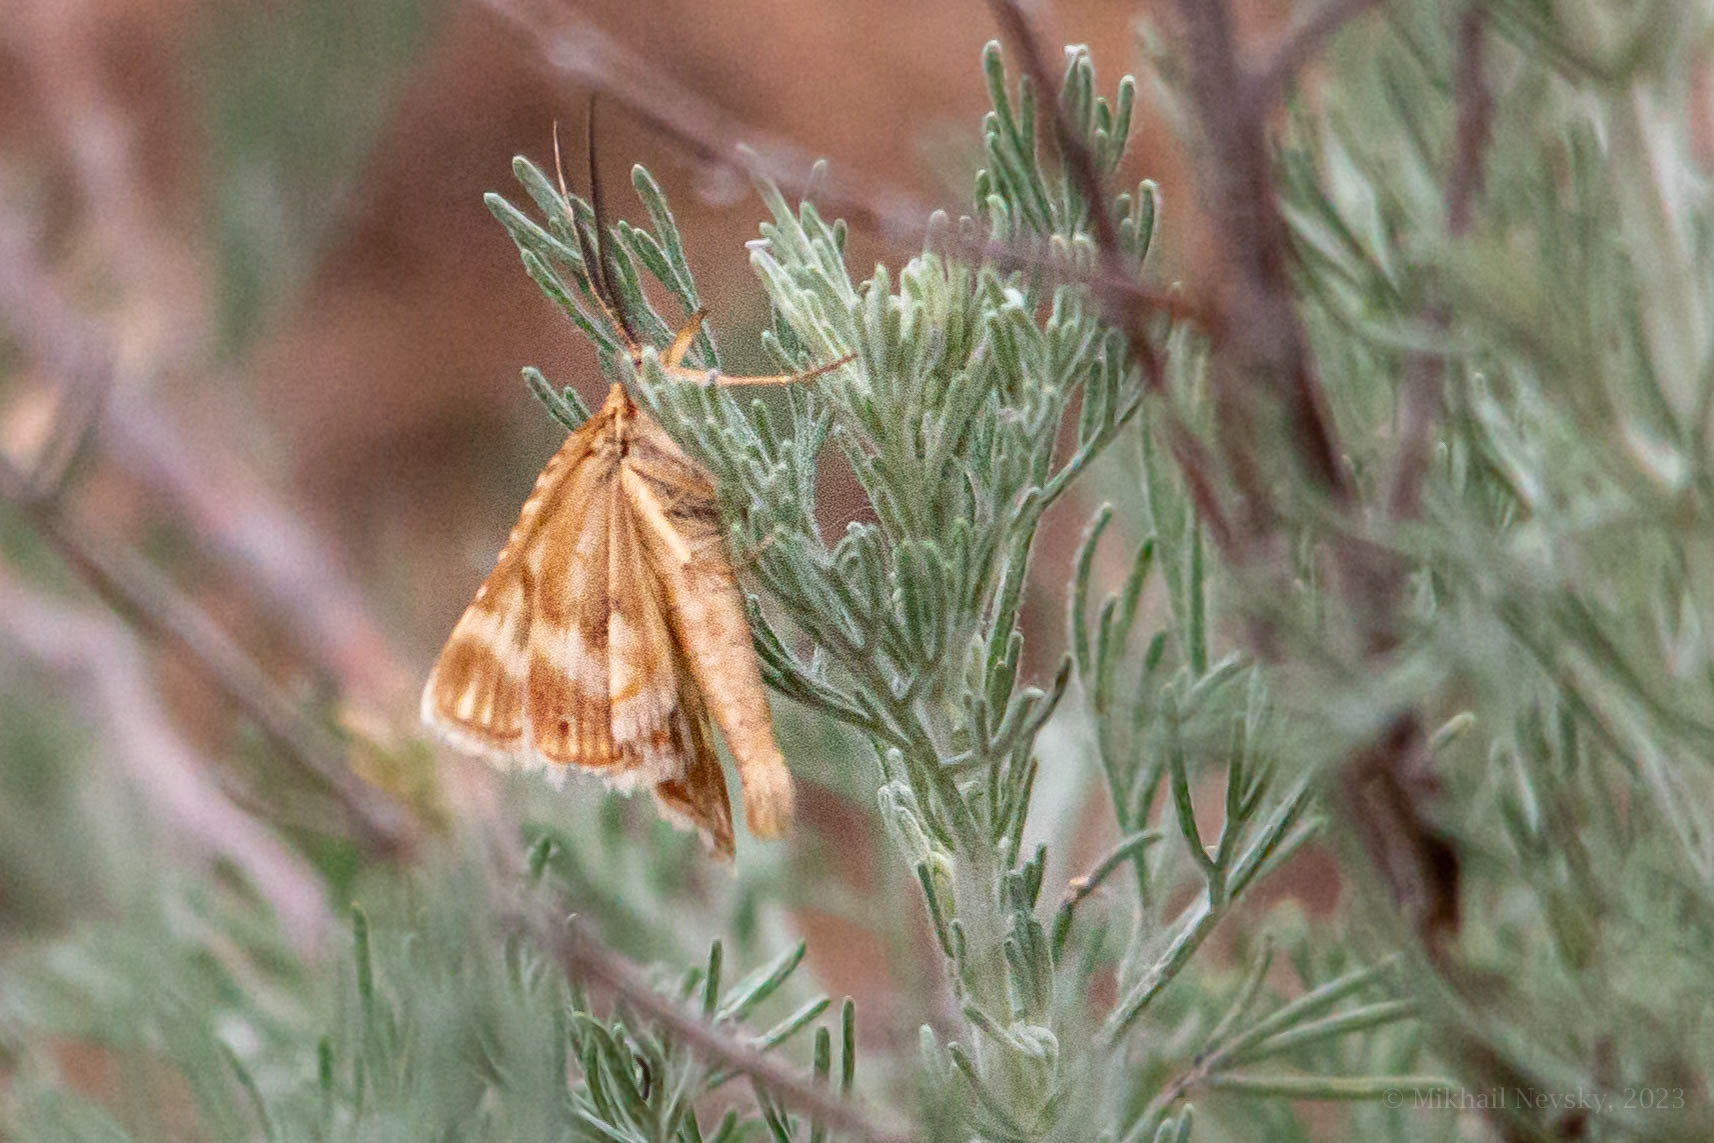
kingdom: Animalia
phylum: Arthropoda
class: Insecta
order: Lepidoptera
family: Pyralidae
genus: Synaphe
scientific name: Synaphe moldavica
